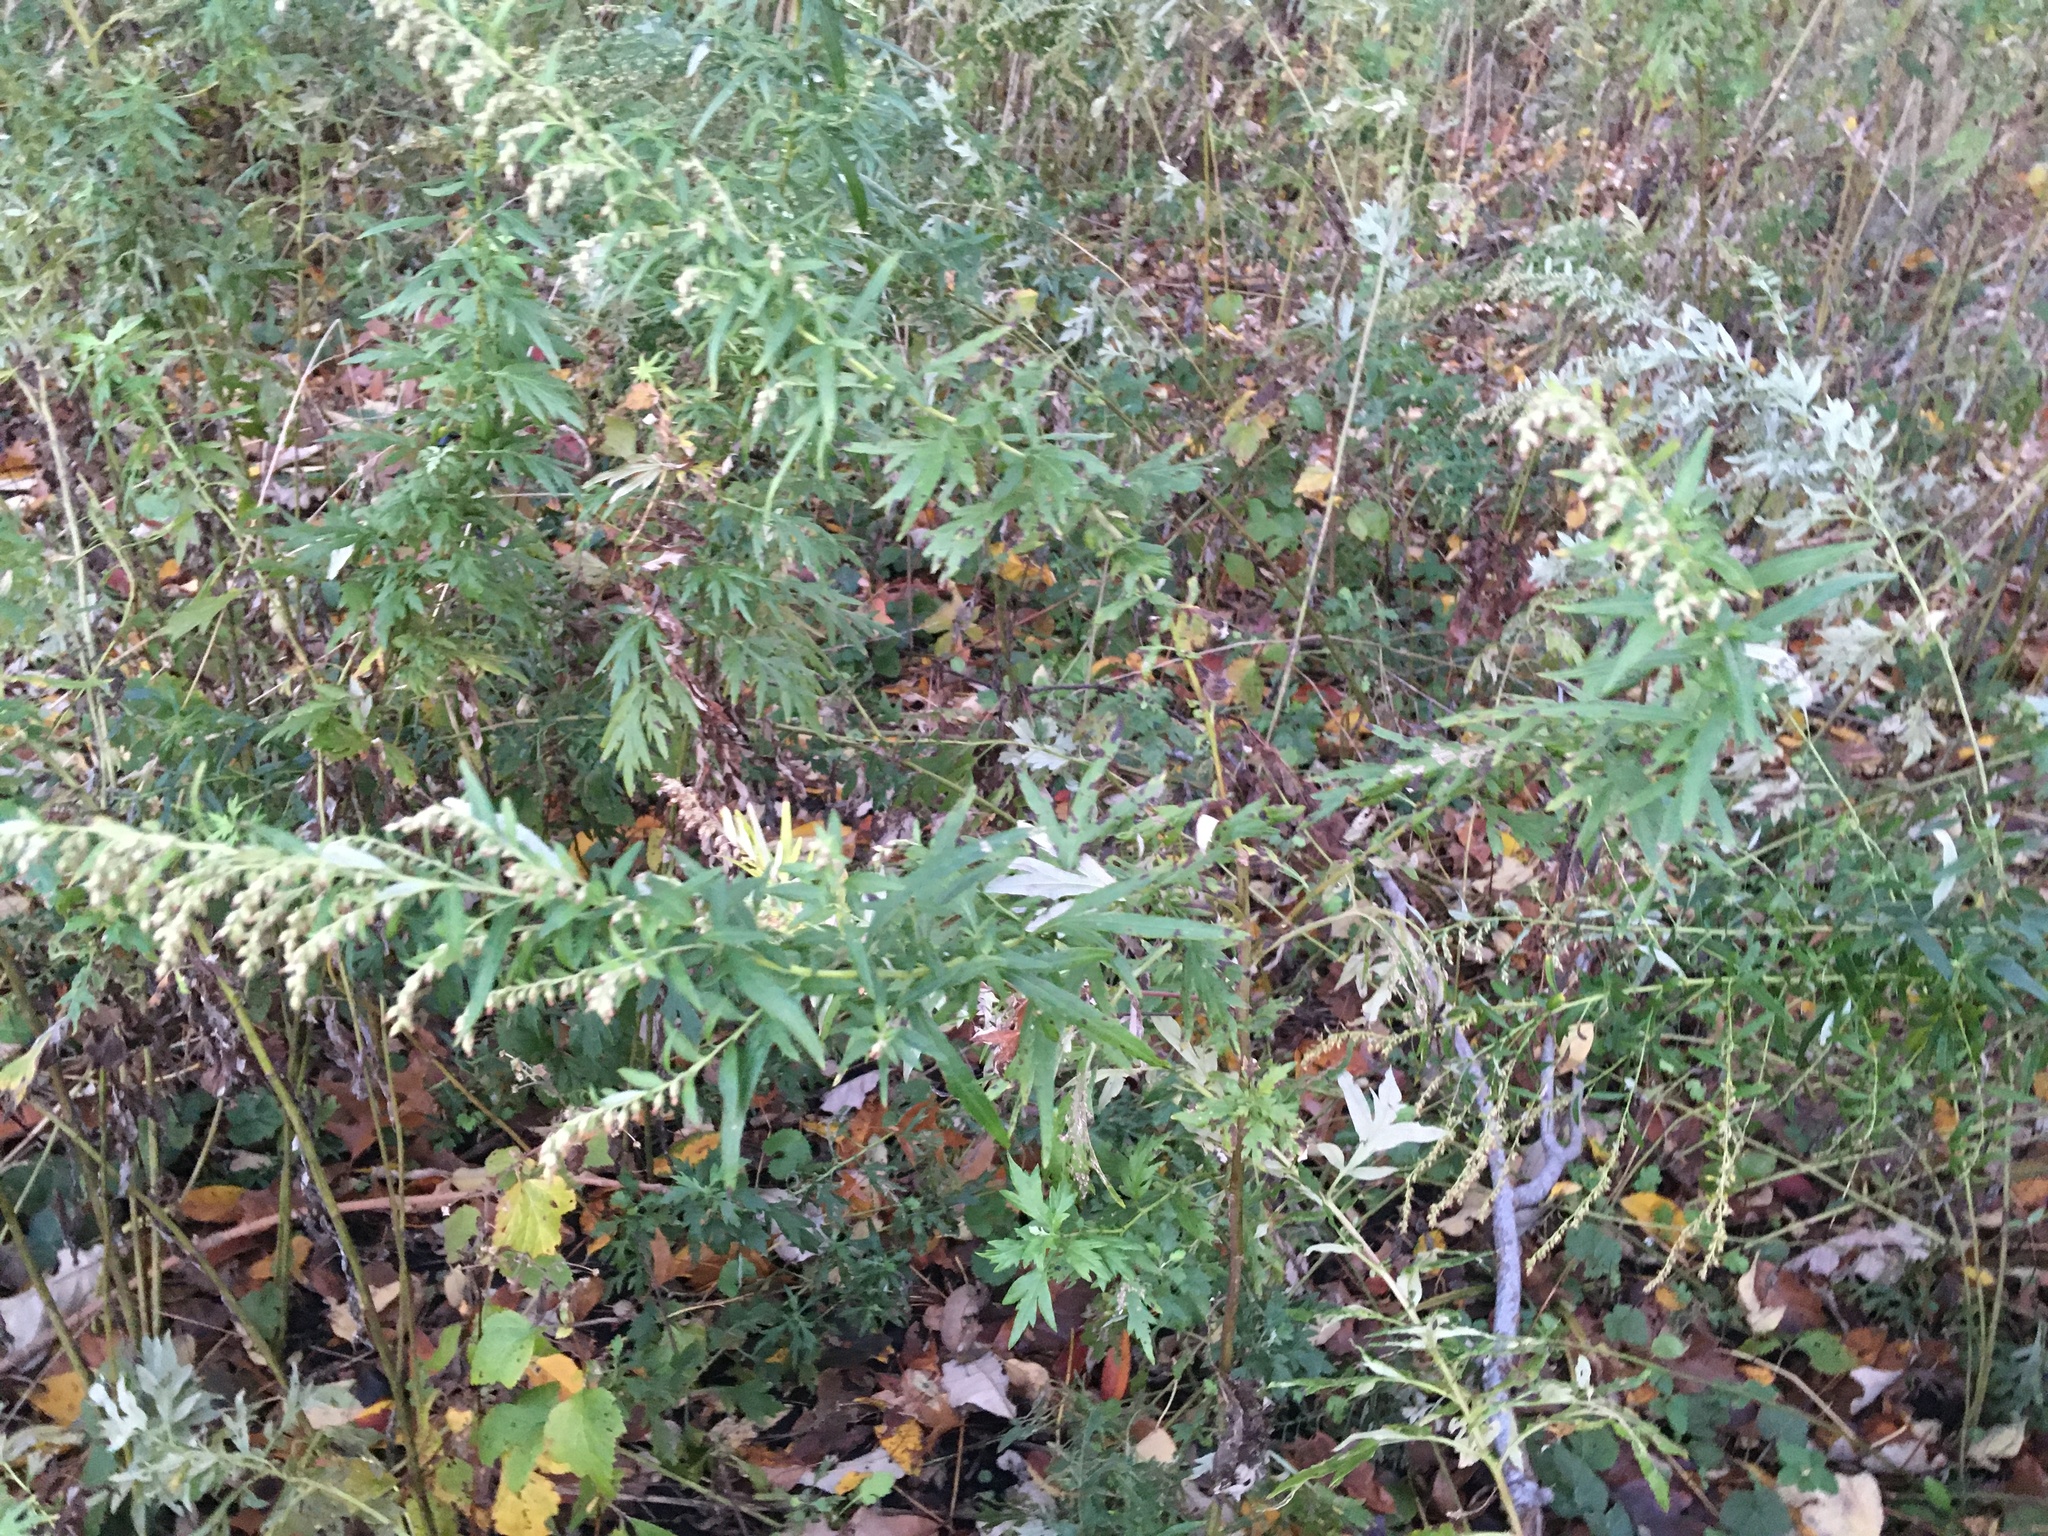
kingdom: Plantae
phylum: Tracheophyta
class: Magnoliopsida
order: Asterales
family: Asteraceae
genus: Artemisia
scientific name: Artemisia vulgaris
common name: Mugwort
